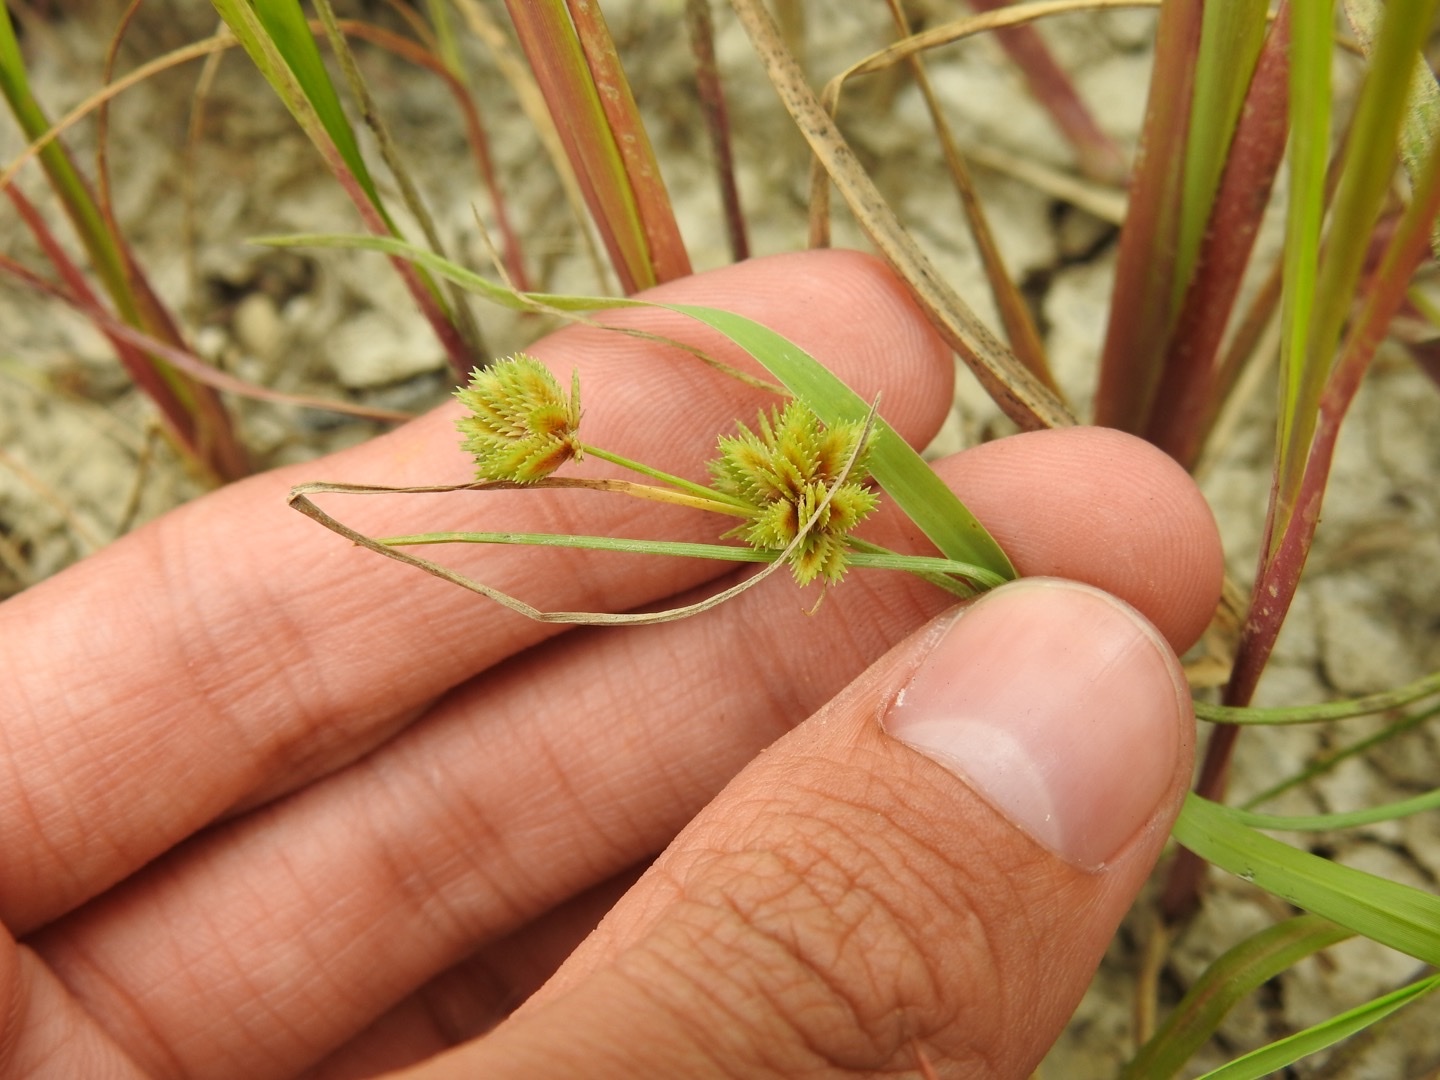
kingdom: Plantae
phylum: Tracheophyta
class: Liliopsida
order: Poales
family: Cyperaceae
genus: Cyperus
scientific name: Cyperus squarrosus
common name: Awned cyperus
